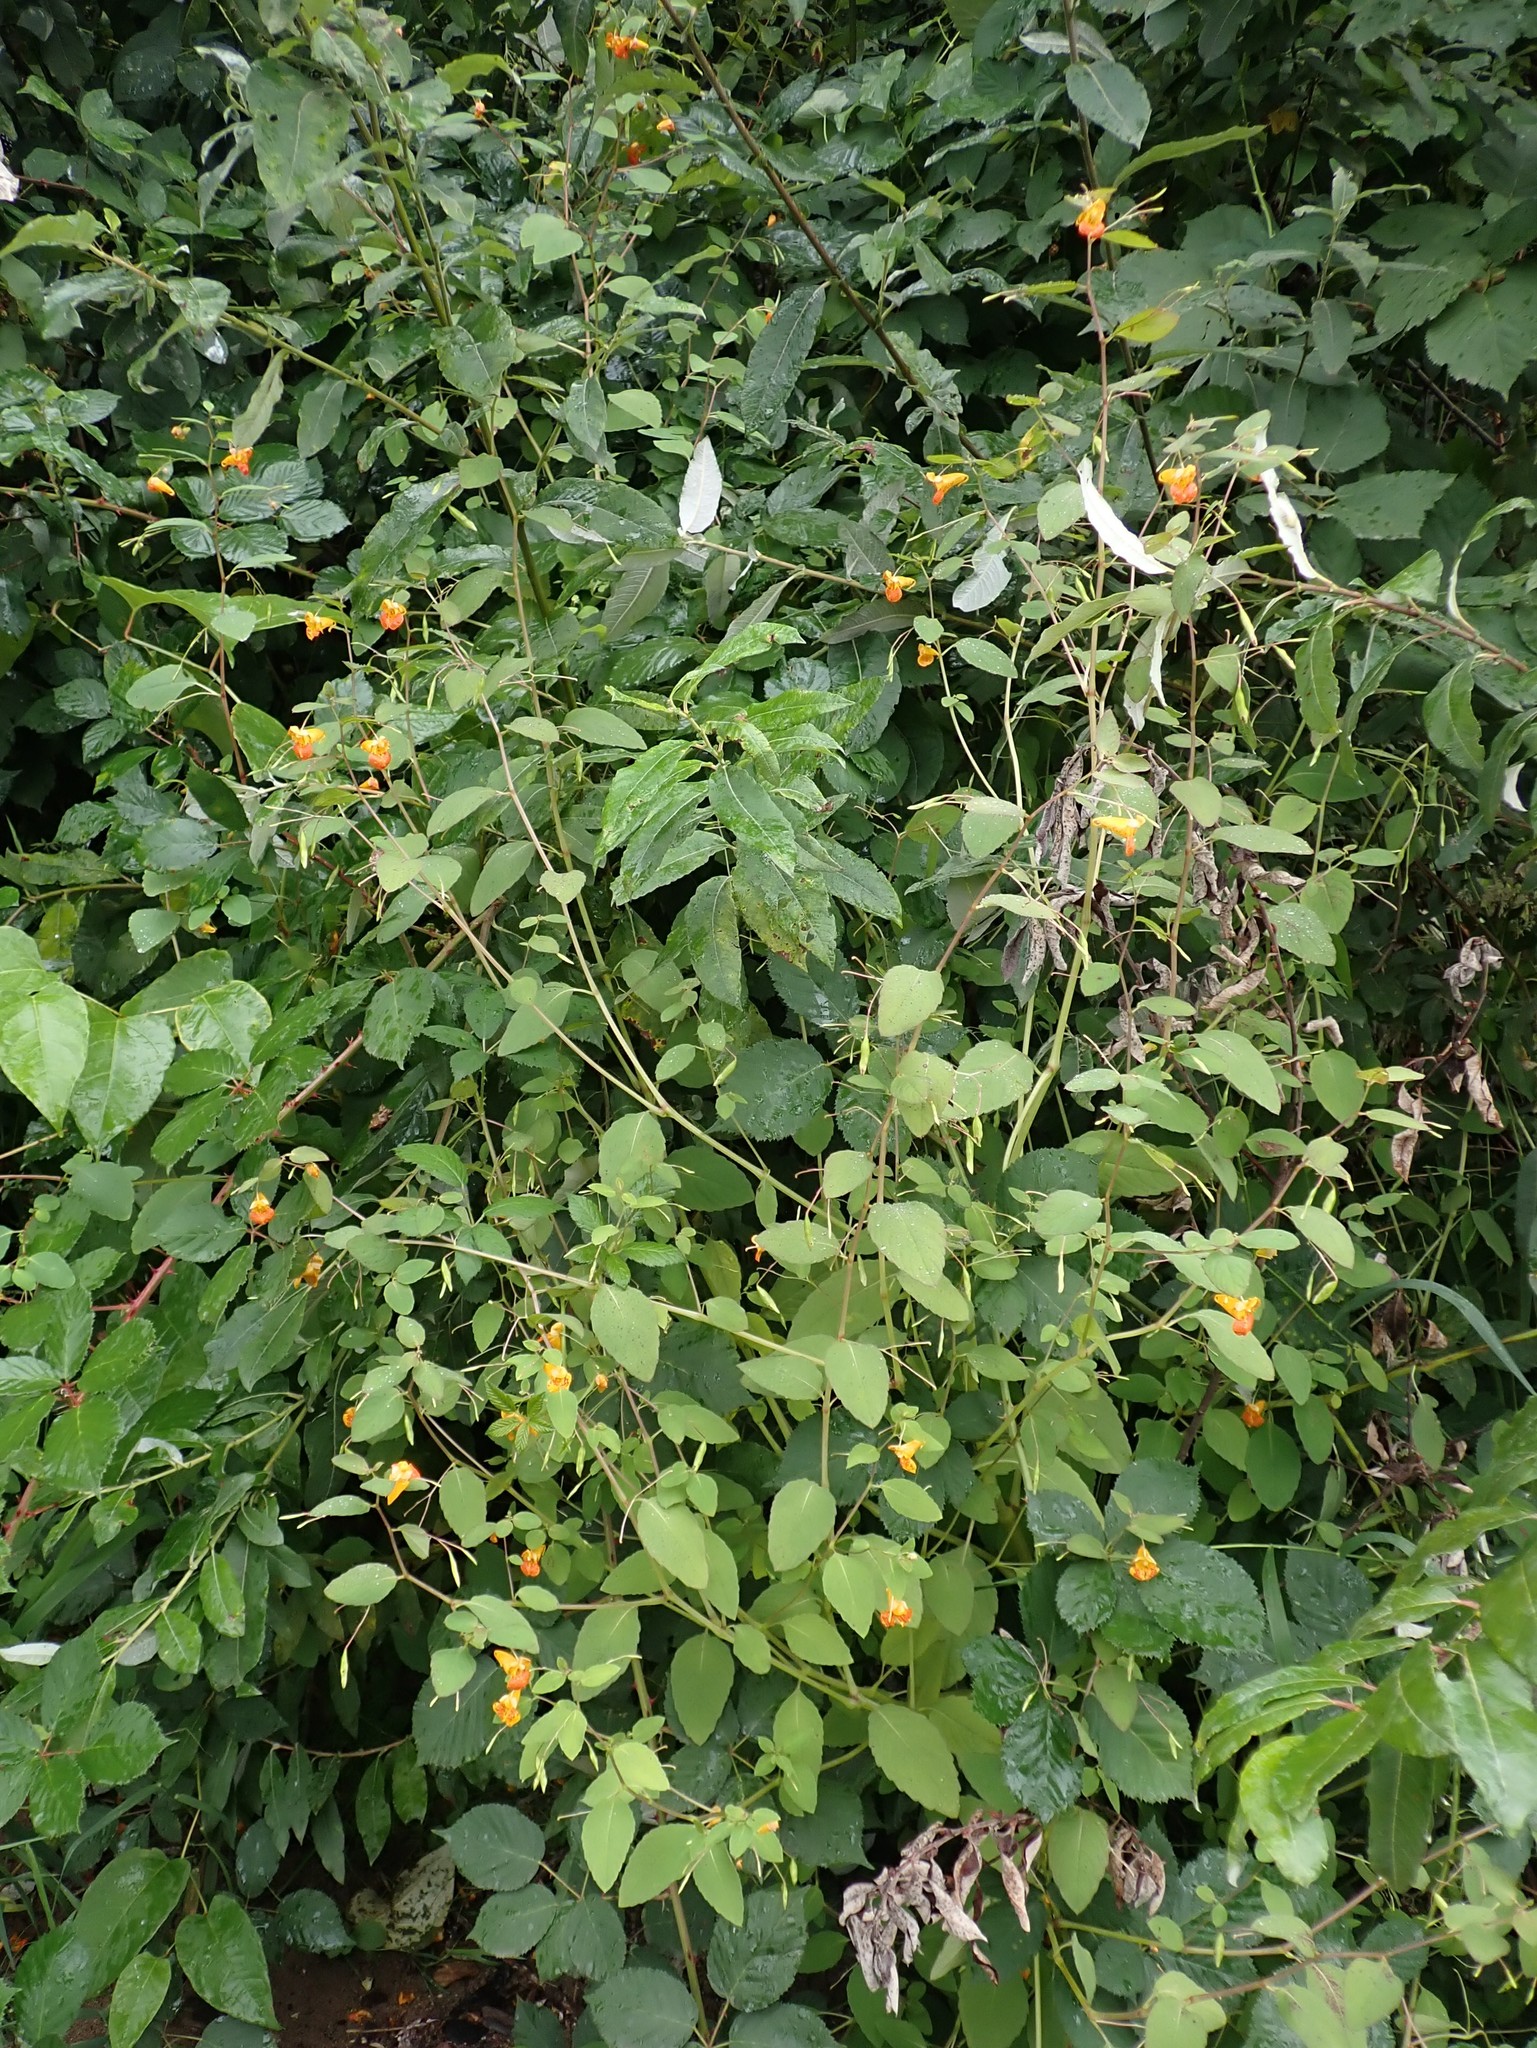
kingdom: Plantae
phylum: Tracheophyta
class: Magnoliopsida
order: Ericales
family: Balsaminaceae
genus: Impatiens
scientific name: Impatiens capensis
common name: Orange balsam
